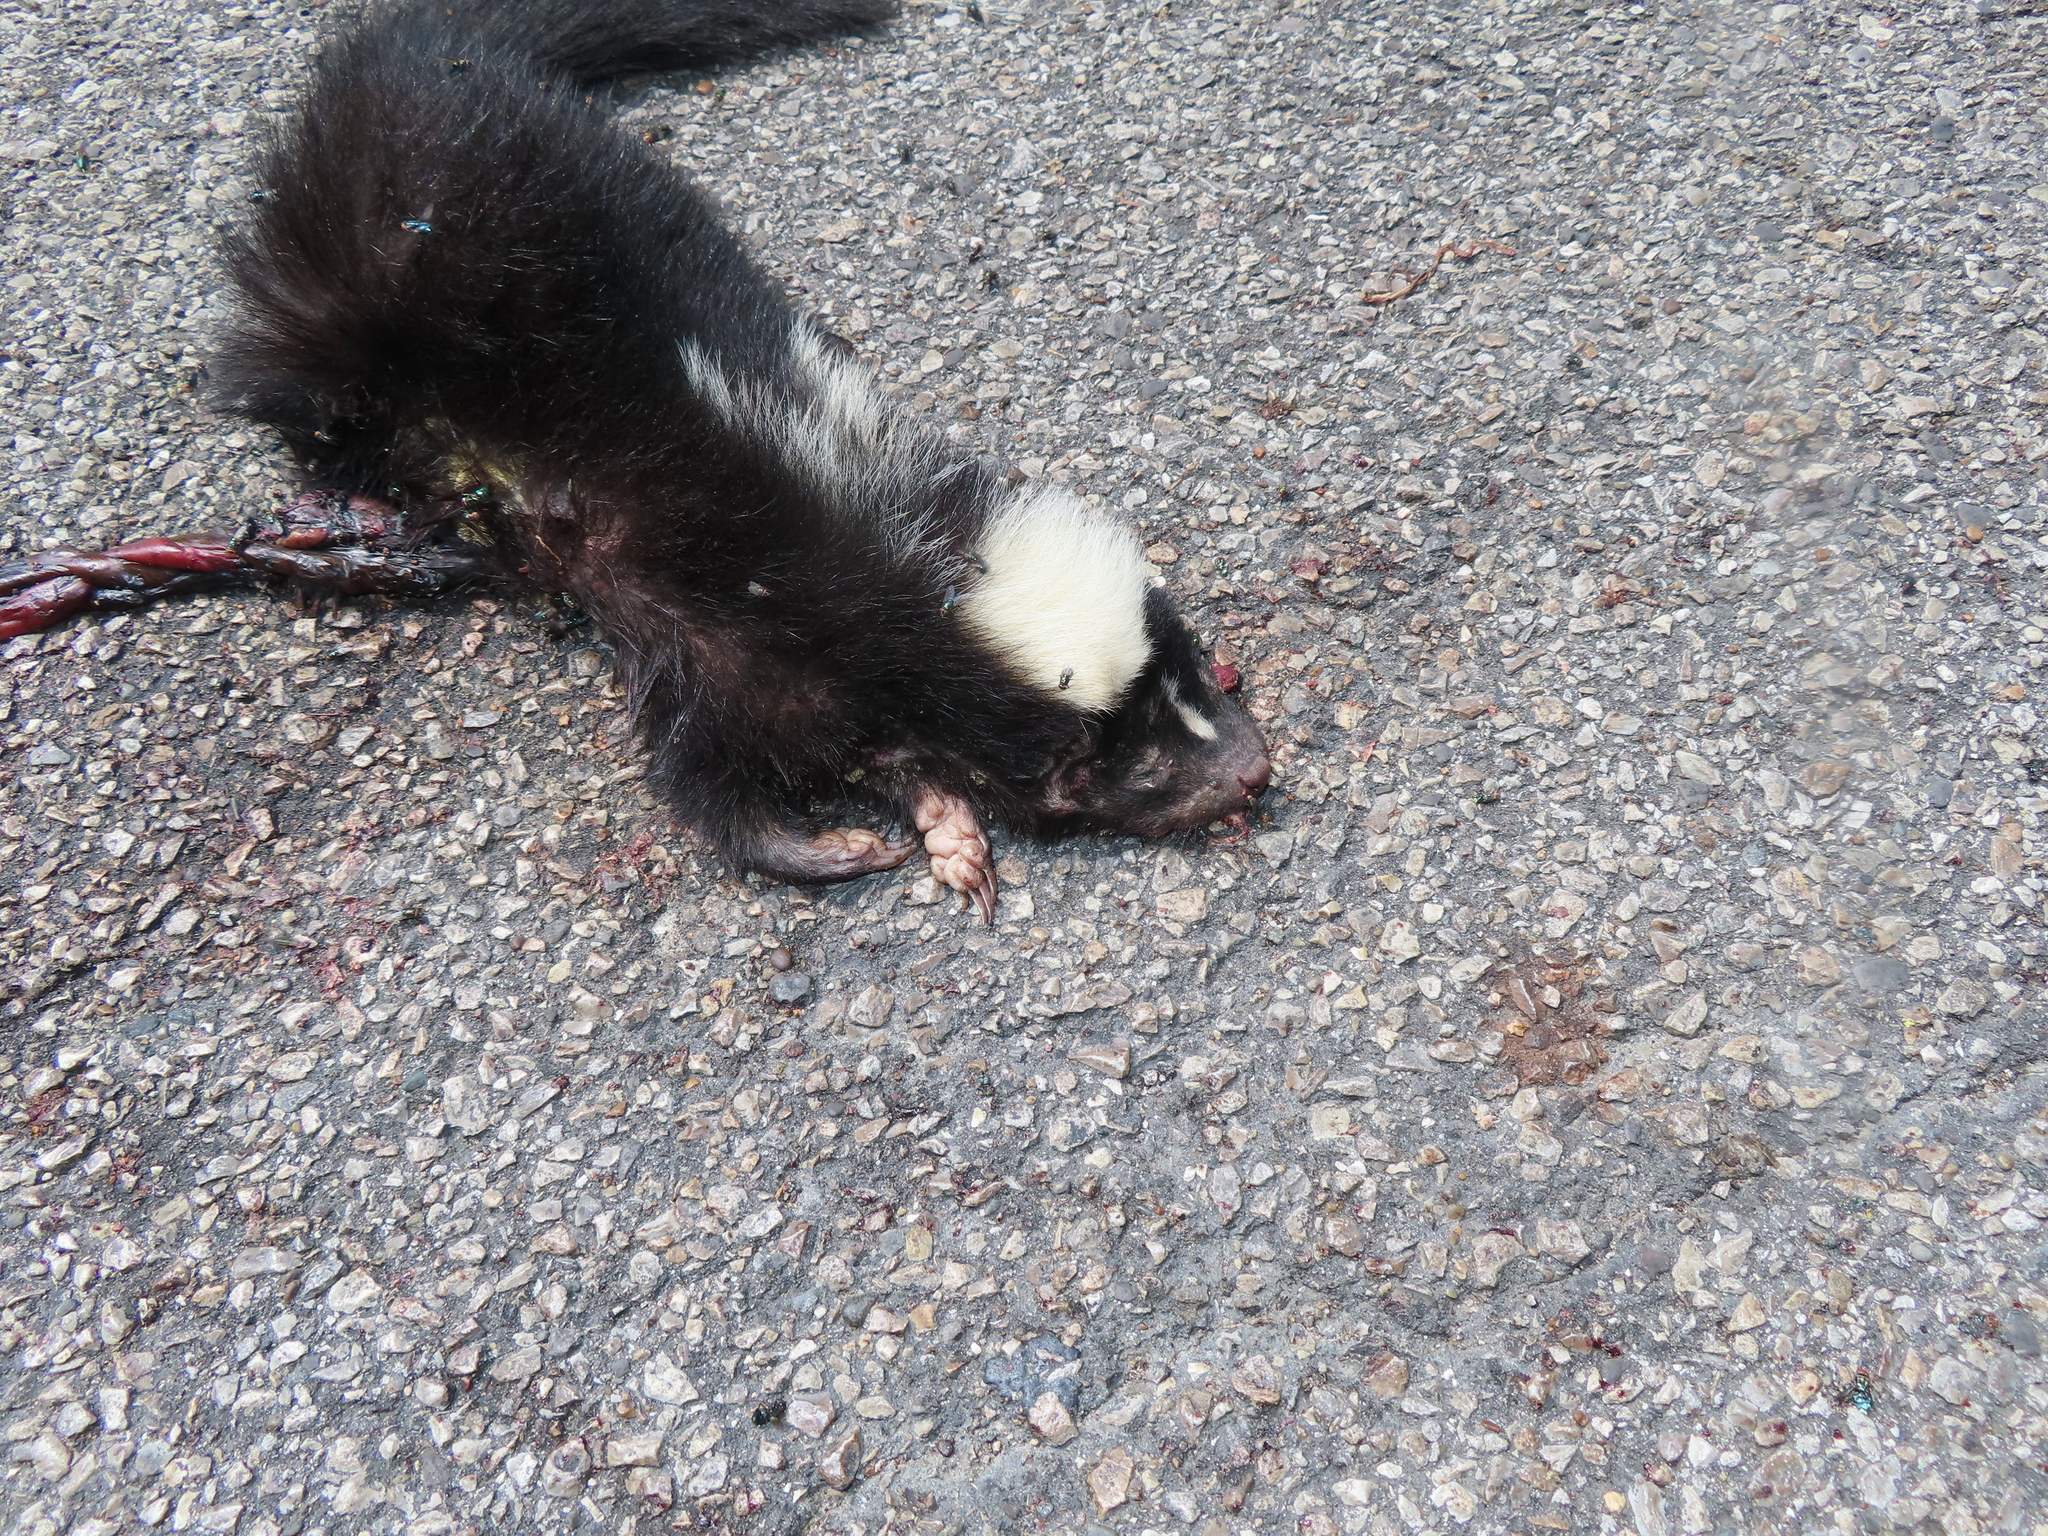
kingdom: Animalia
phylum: Chordata
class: Mammalia
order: Carnivora
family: Mephitidae
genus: Mephitis
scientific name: Mephitis mephitis
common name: Striped skunk
